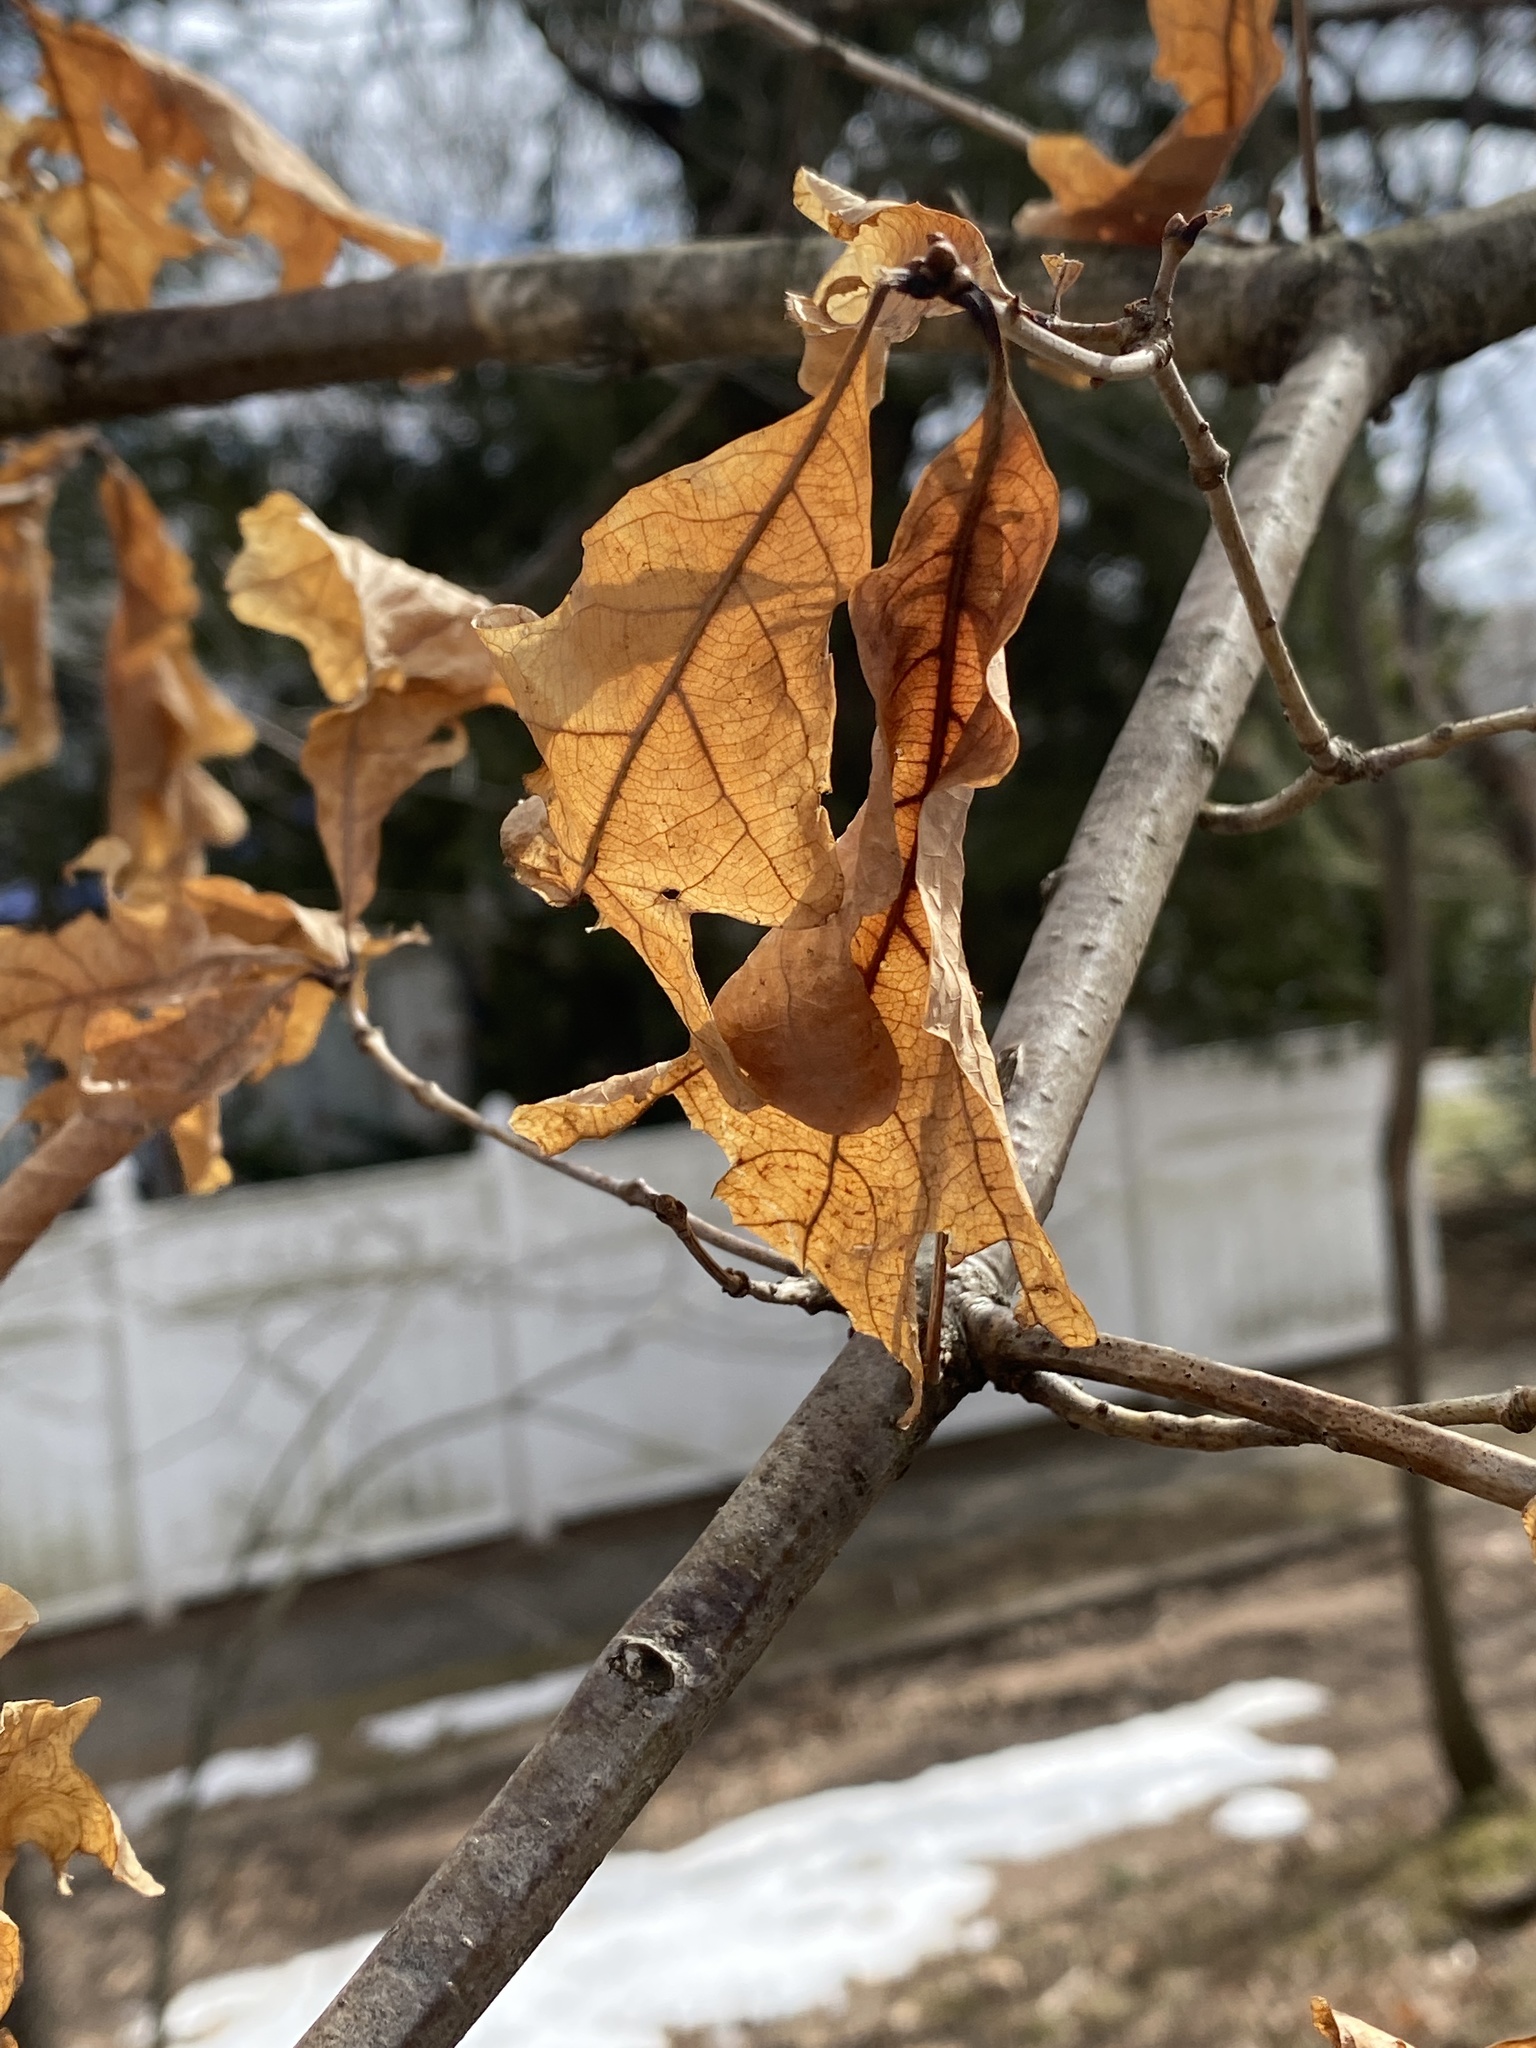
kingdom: Plantae
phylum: Tracheophyta
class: Magnoliopsida
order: Fagales
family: Fagaceae
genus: Quercus
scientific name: Quercus alba
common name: White oak
